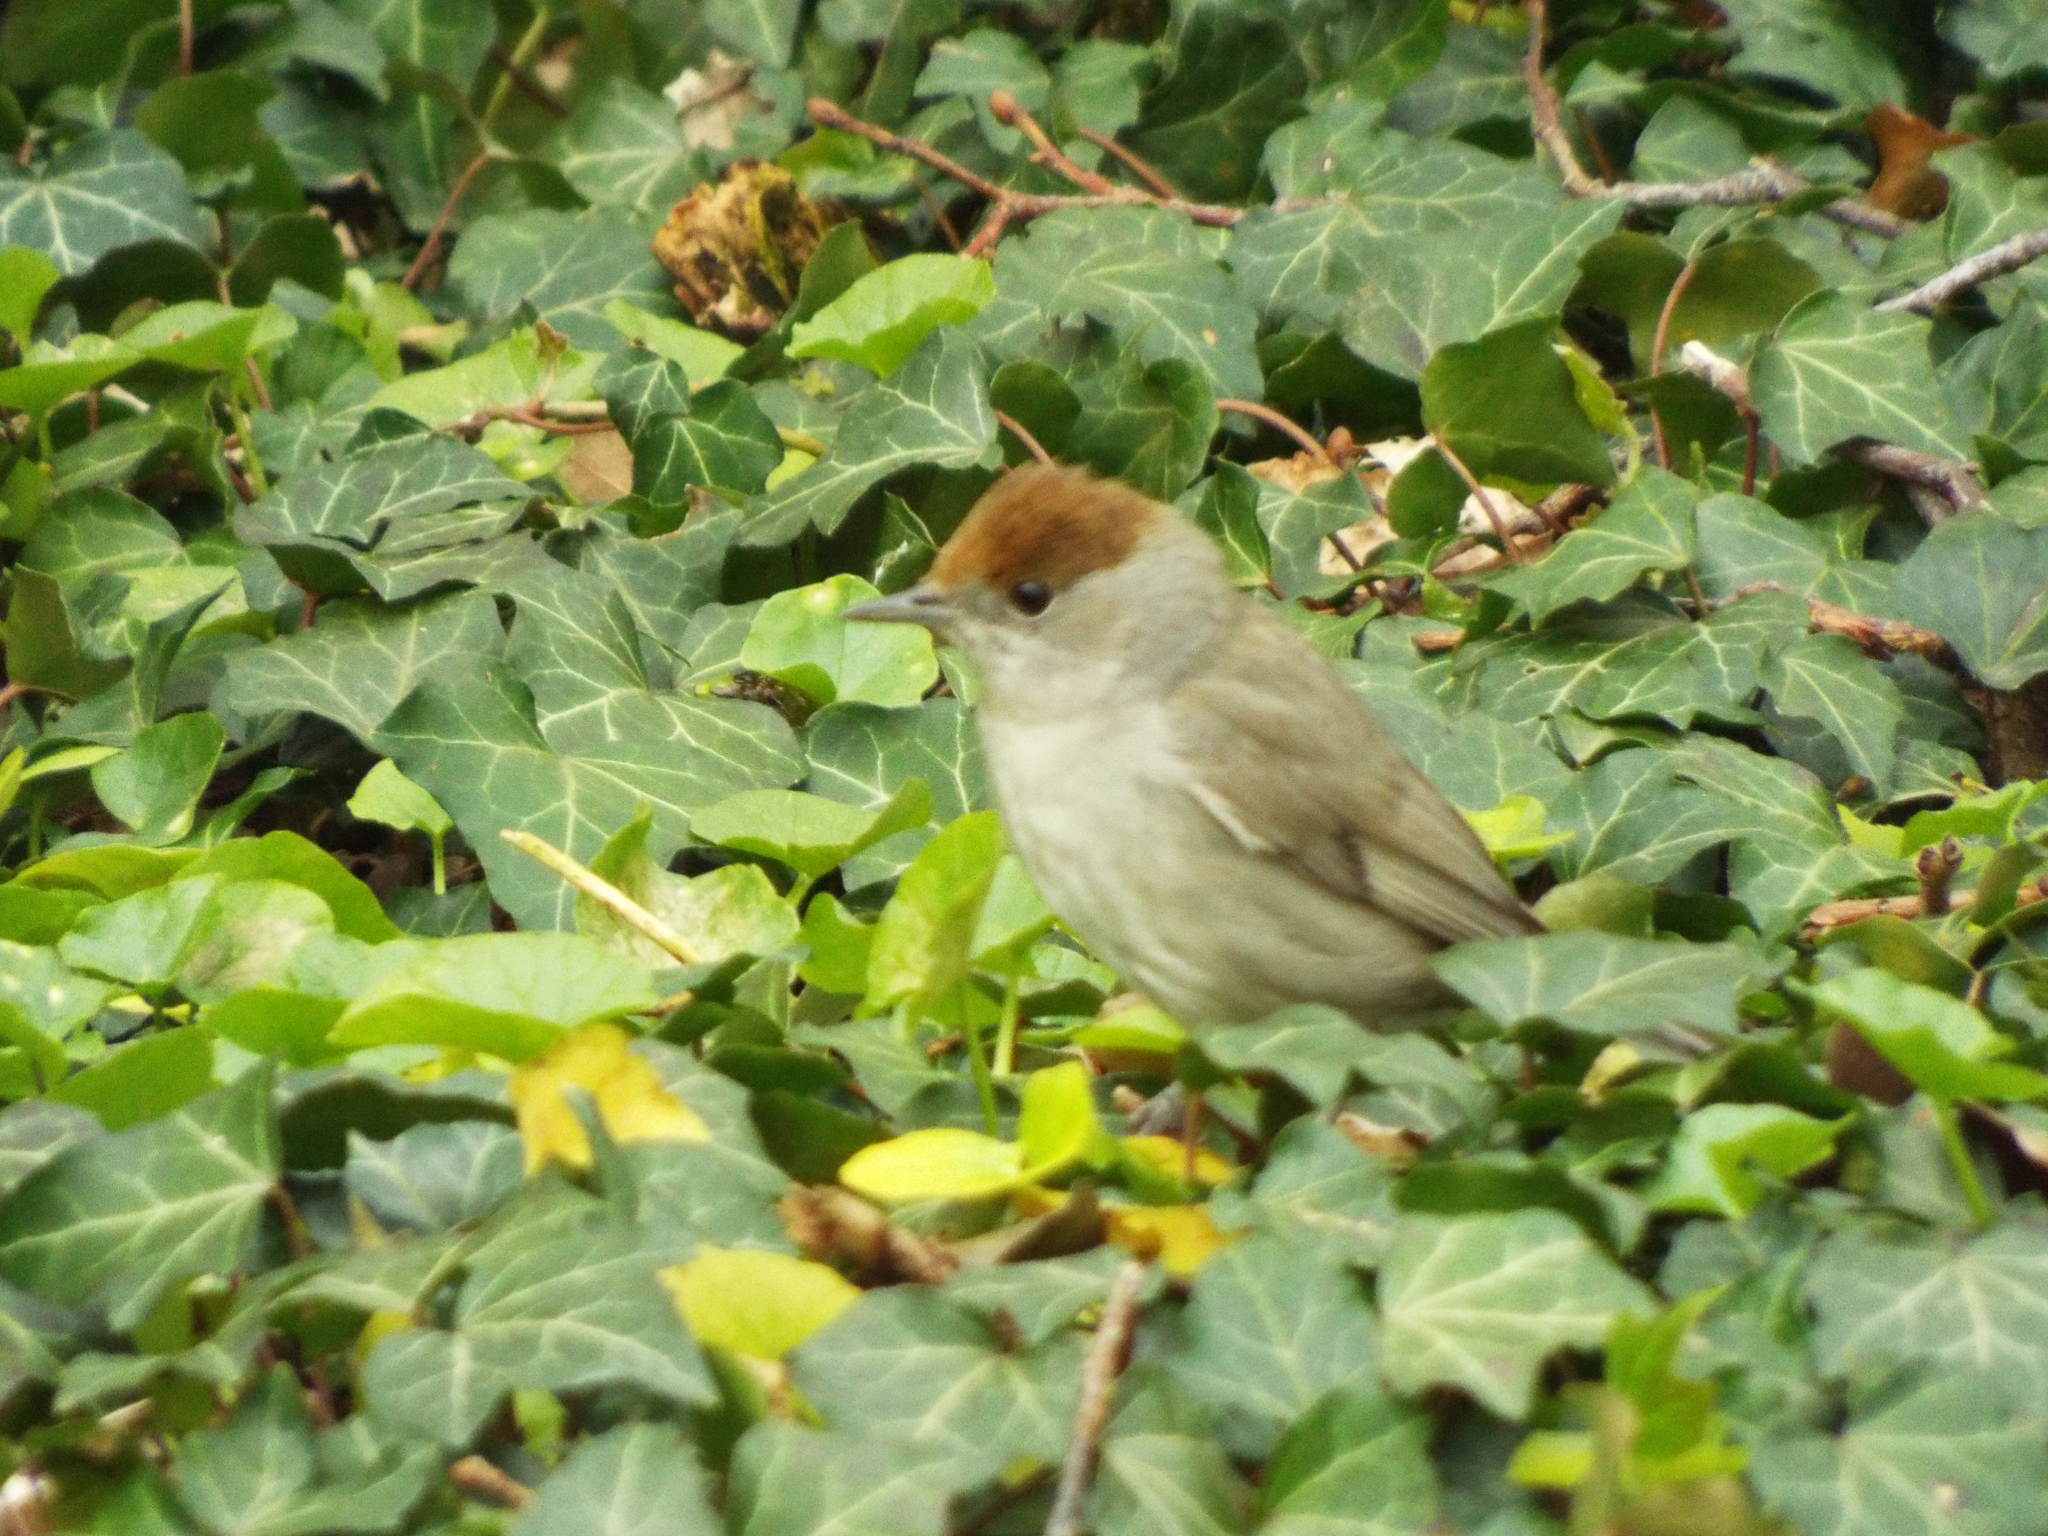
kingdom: Animalia
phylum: Chordata
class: Aves
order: Passeriformes
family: Sylviidae
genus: Sylvia
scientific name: Sylvia atricapilla
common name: Eurasian blackcap
